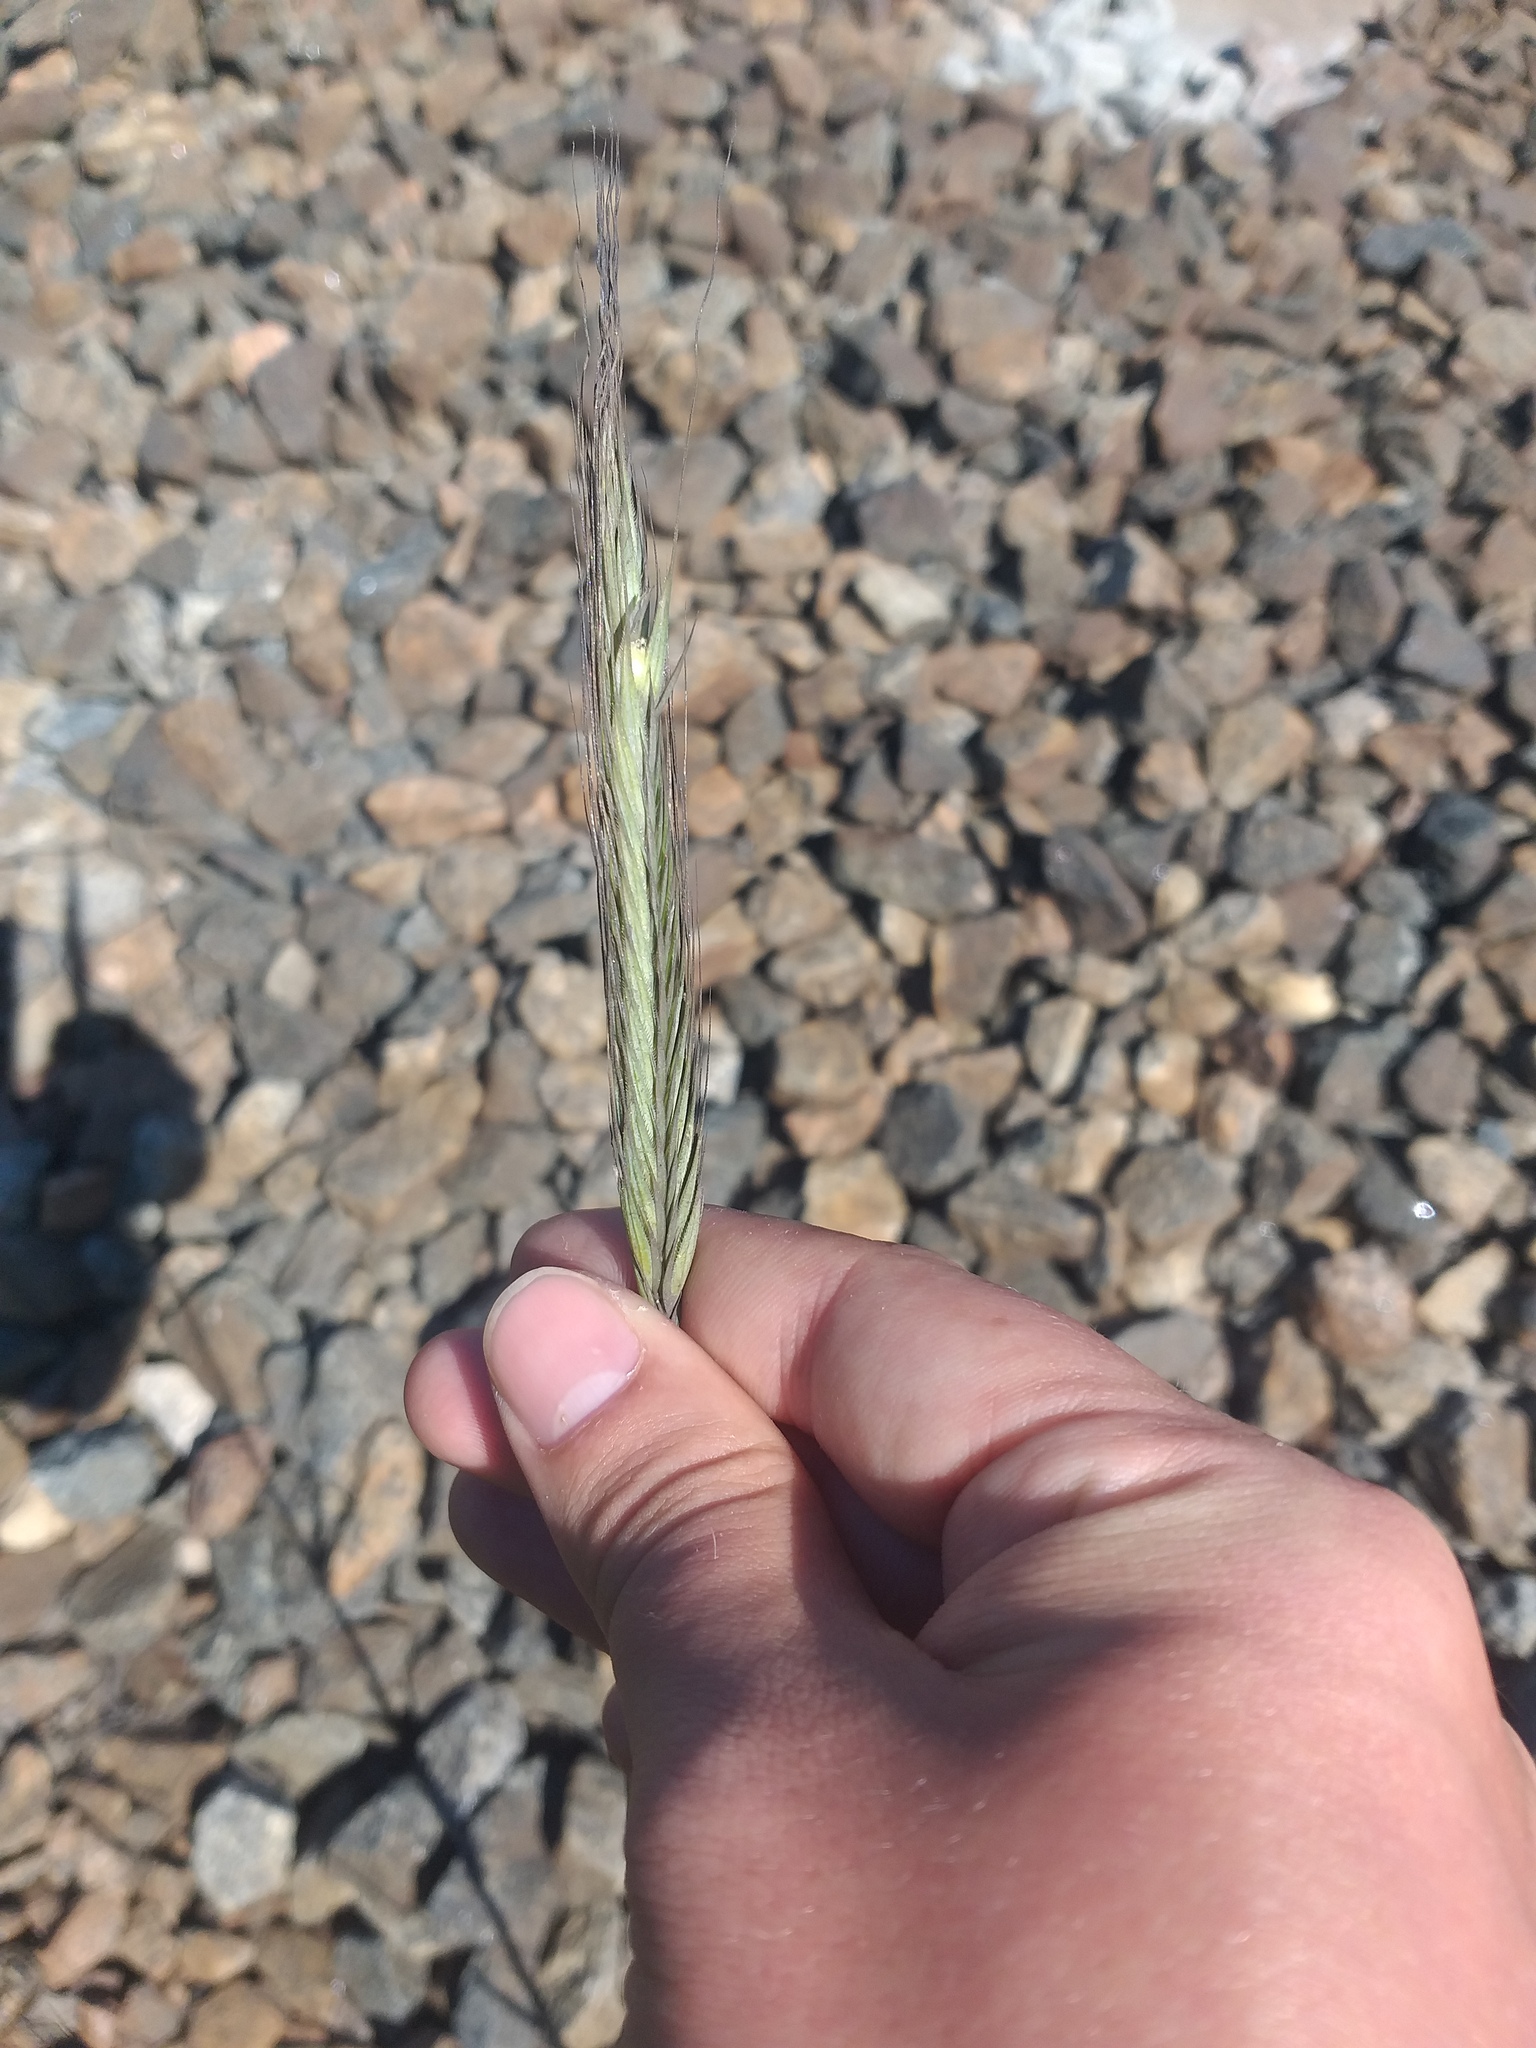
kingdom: Plantae
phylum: Tracheophyta
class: Liliopsida
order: Poales
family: Poaceae
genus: Secale
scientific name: Secale cereale
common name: Rye
